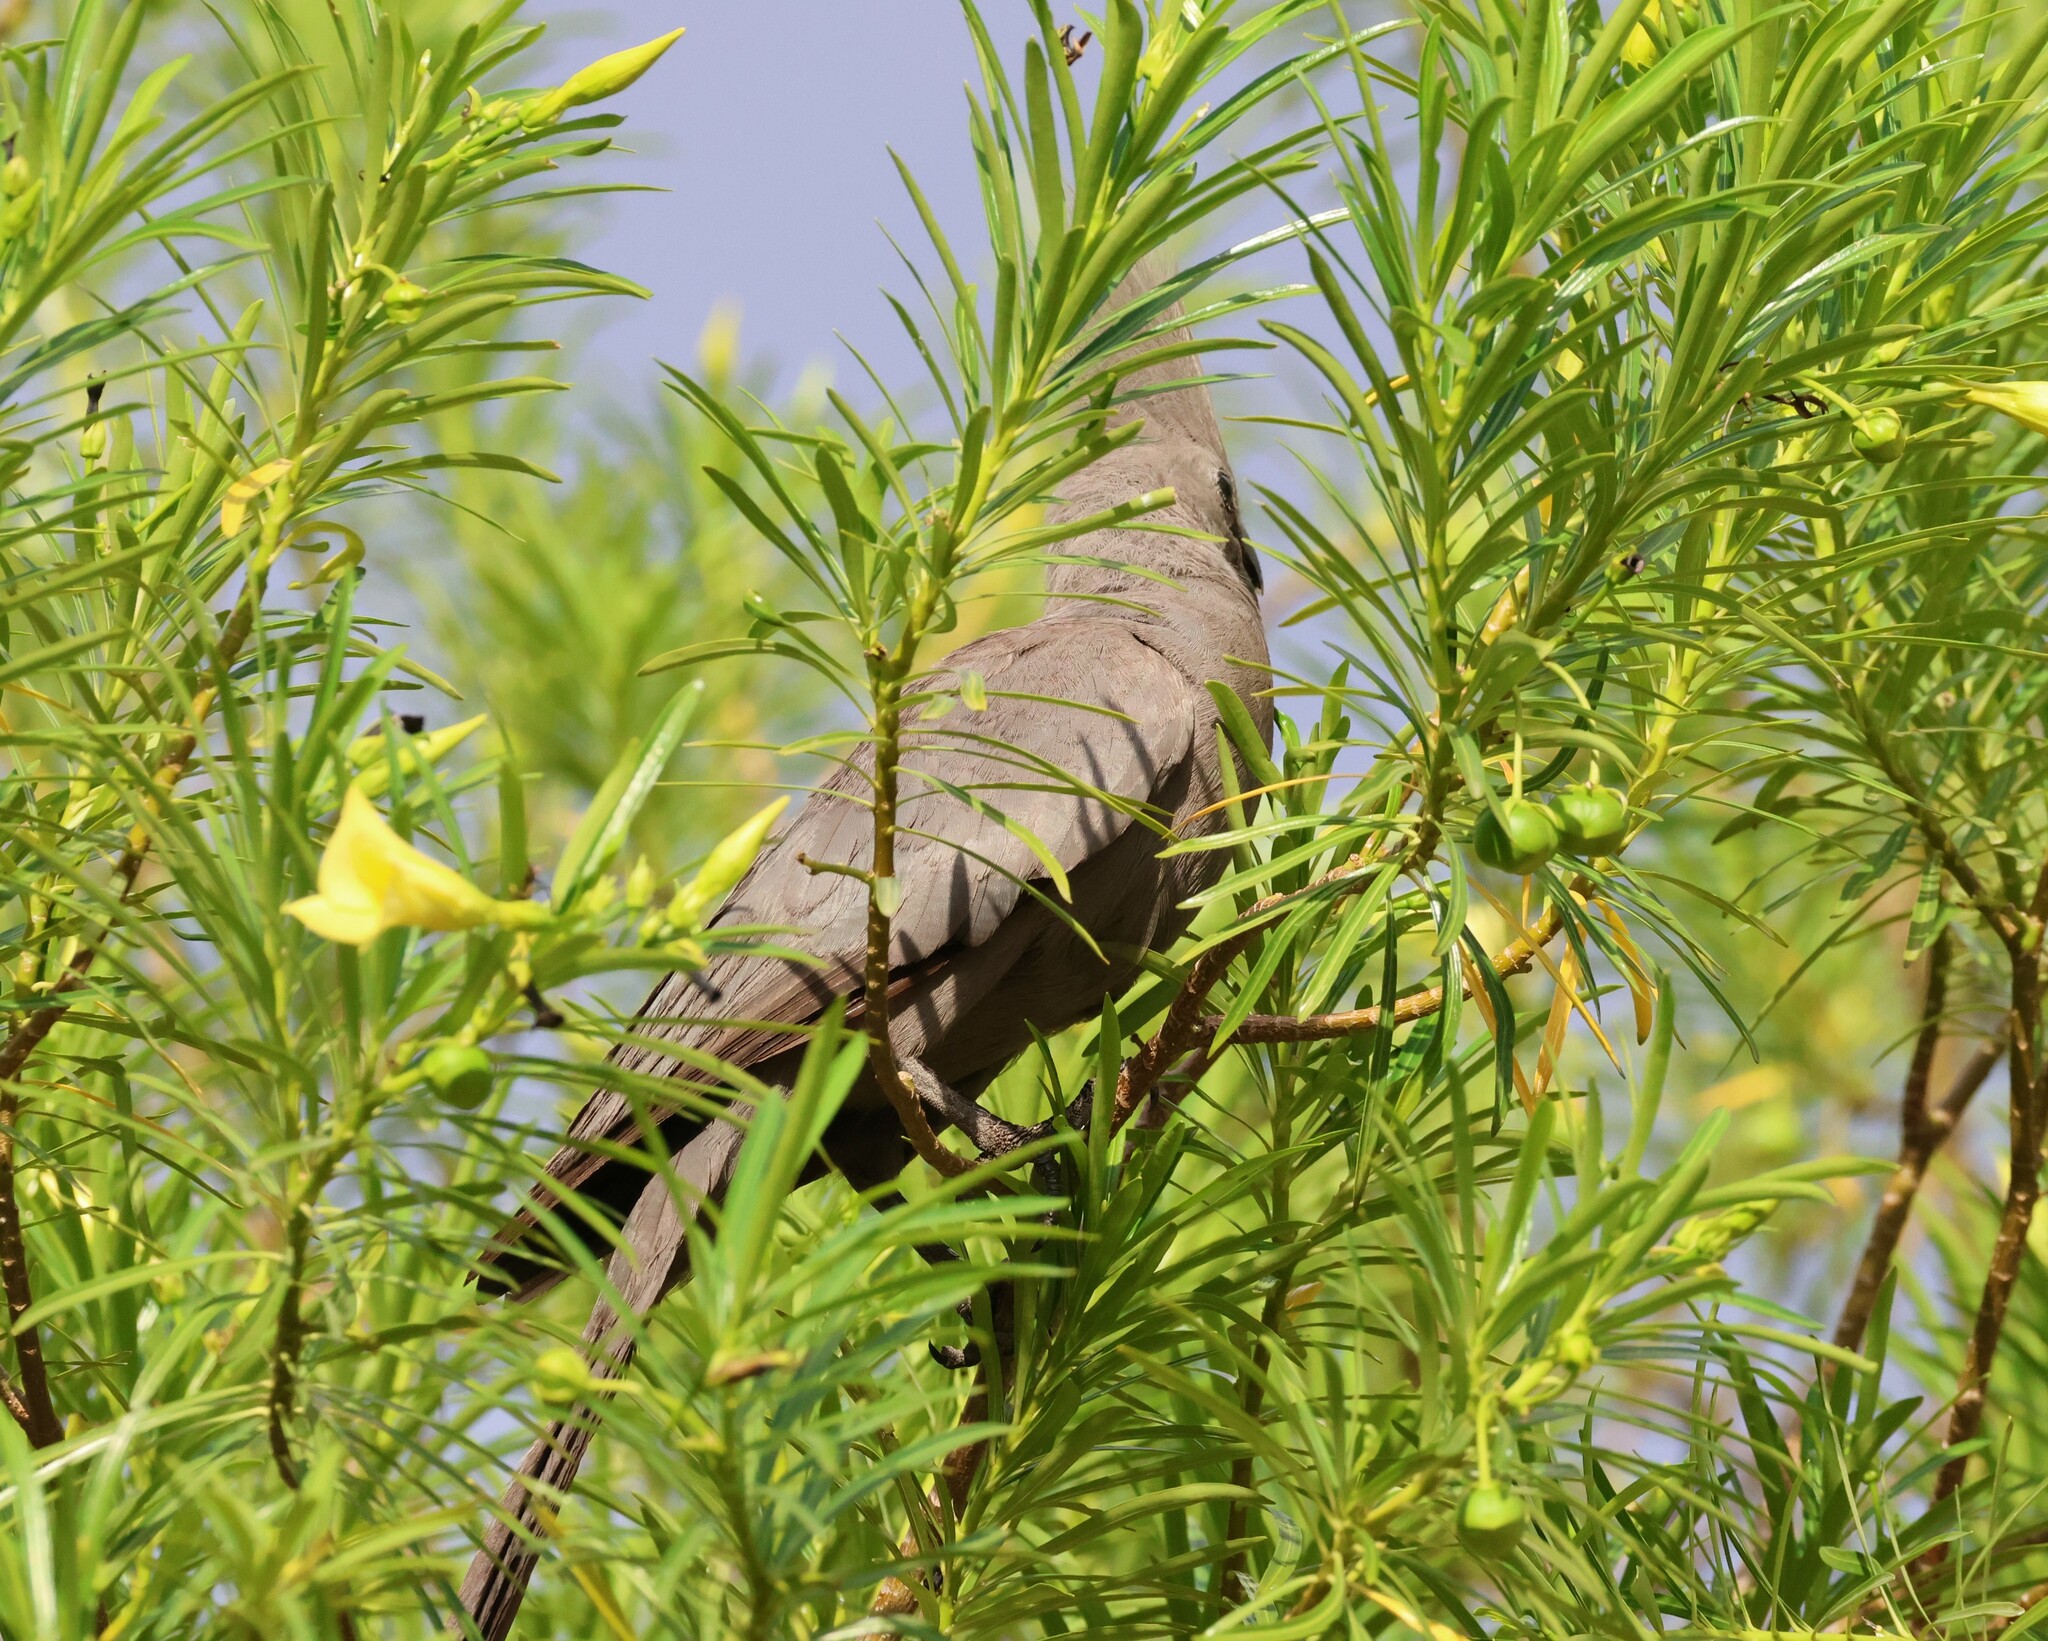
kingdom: Animalia
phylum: Chordata
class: Aves
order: Musophagiformes
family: Musophagidae
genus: Corythaixoides
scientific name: Corythaixoides concolor
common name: Grey go-away-bird
